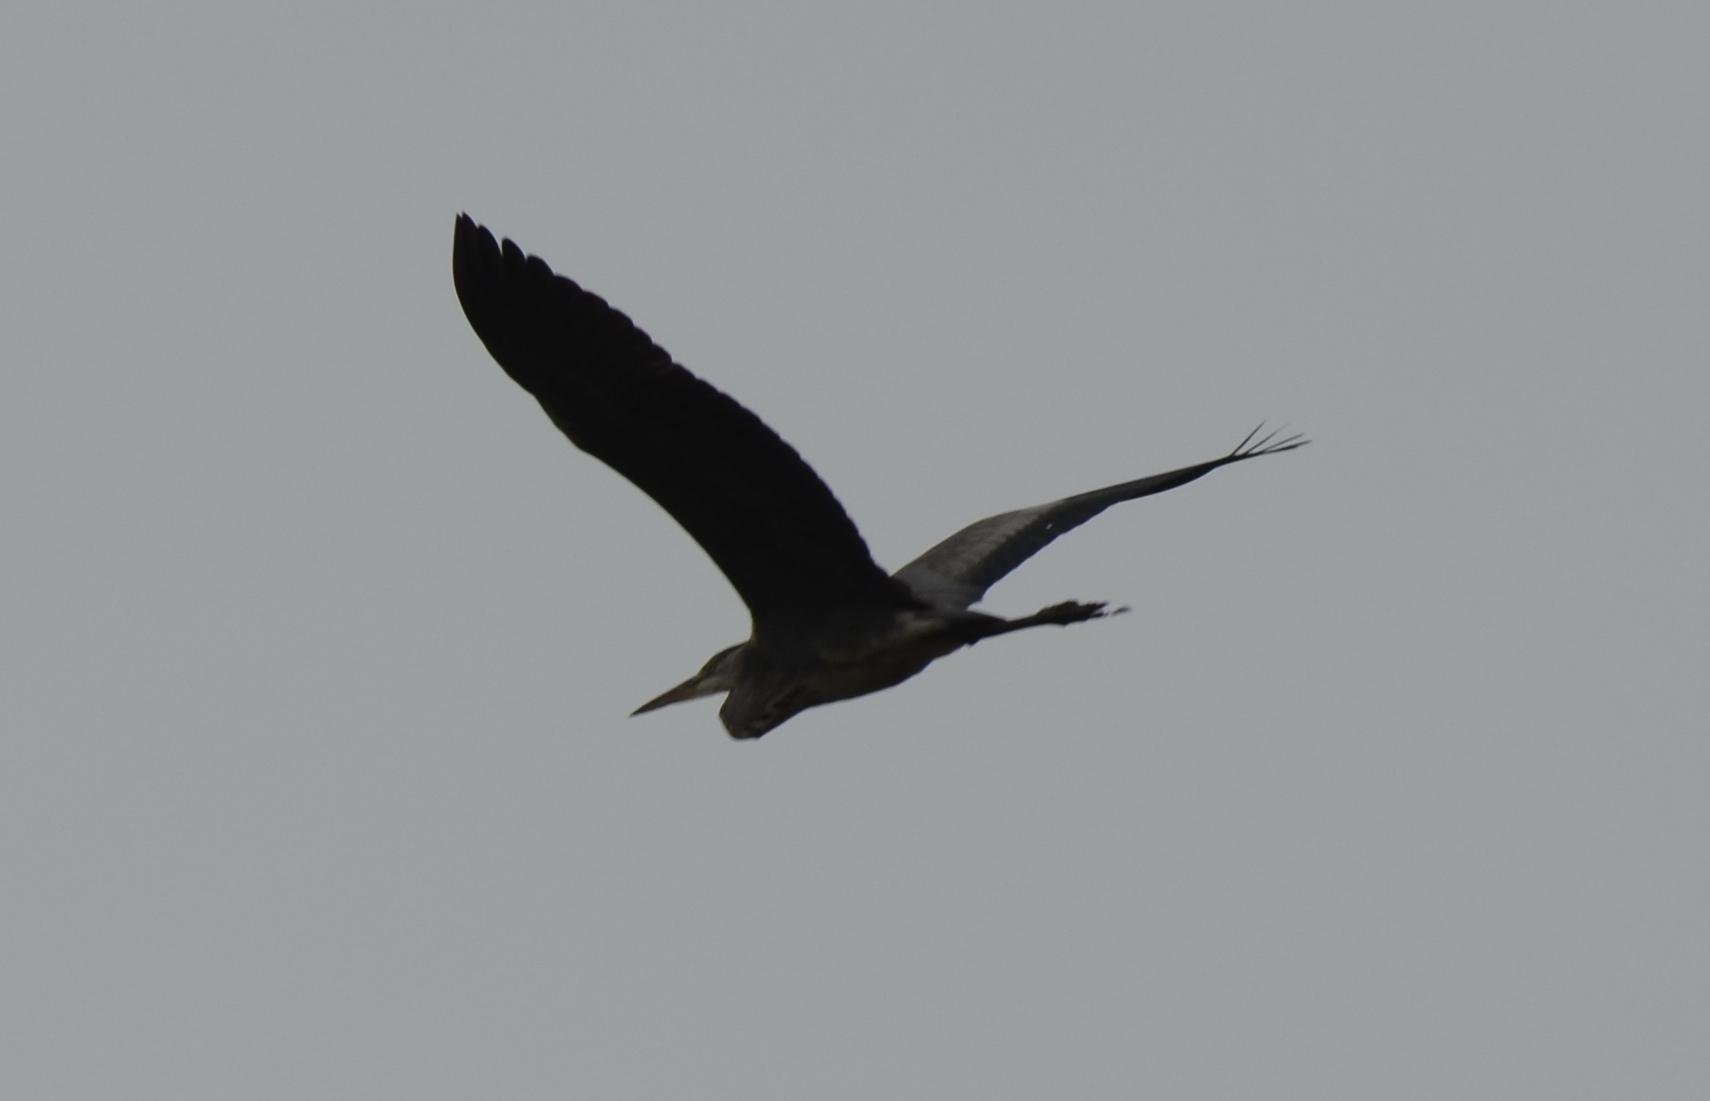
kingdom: Animalia
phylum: Chordata
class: Aves
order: Pelecaniformes
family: Ardeidae
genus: Ardea
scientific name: Ardea cinerea
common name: Grey heron
